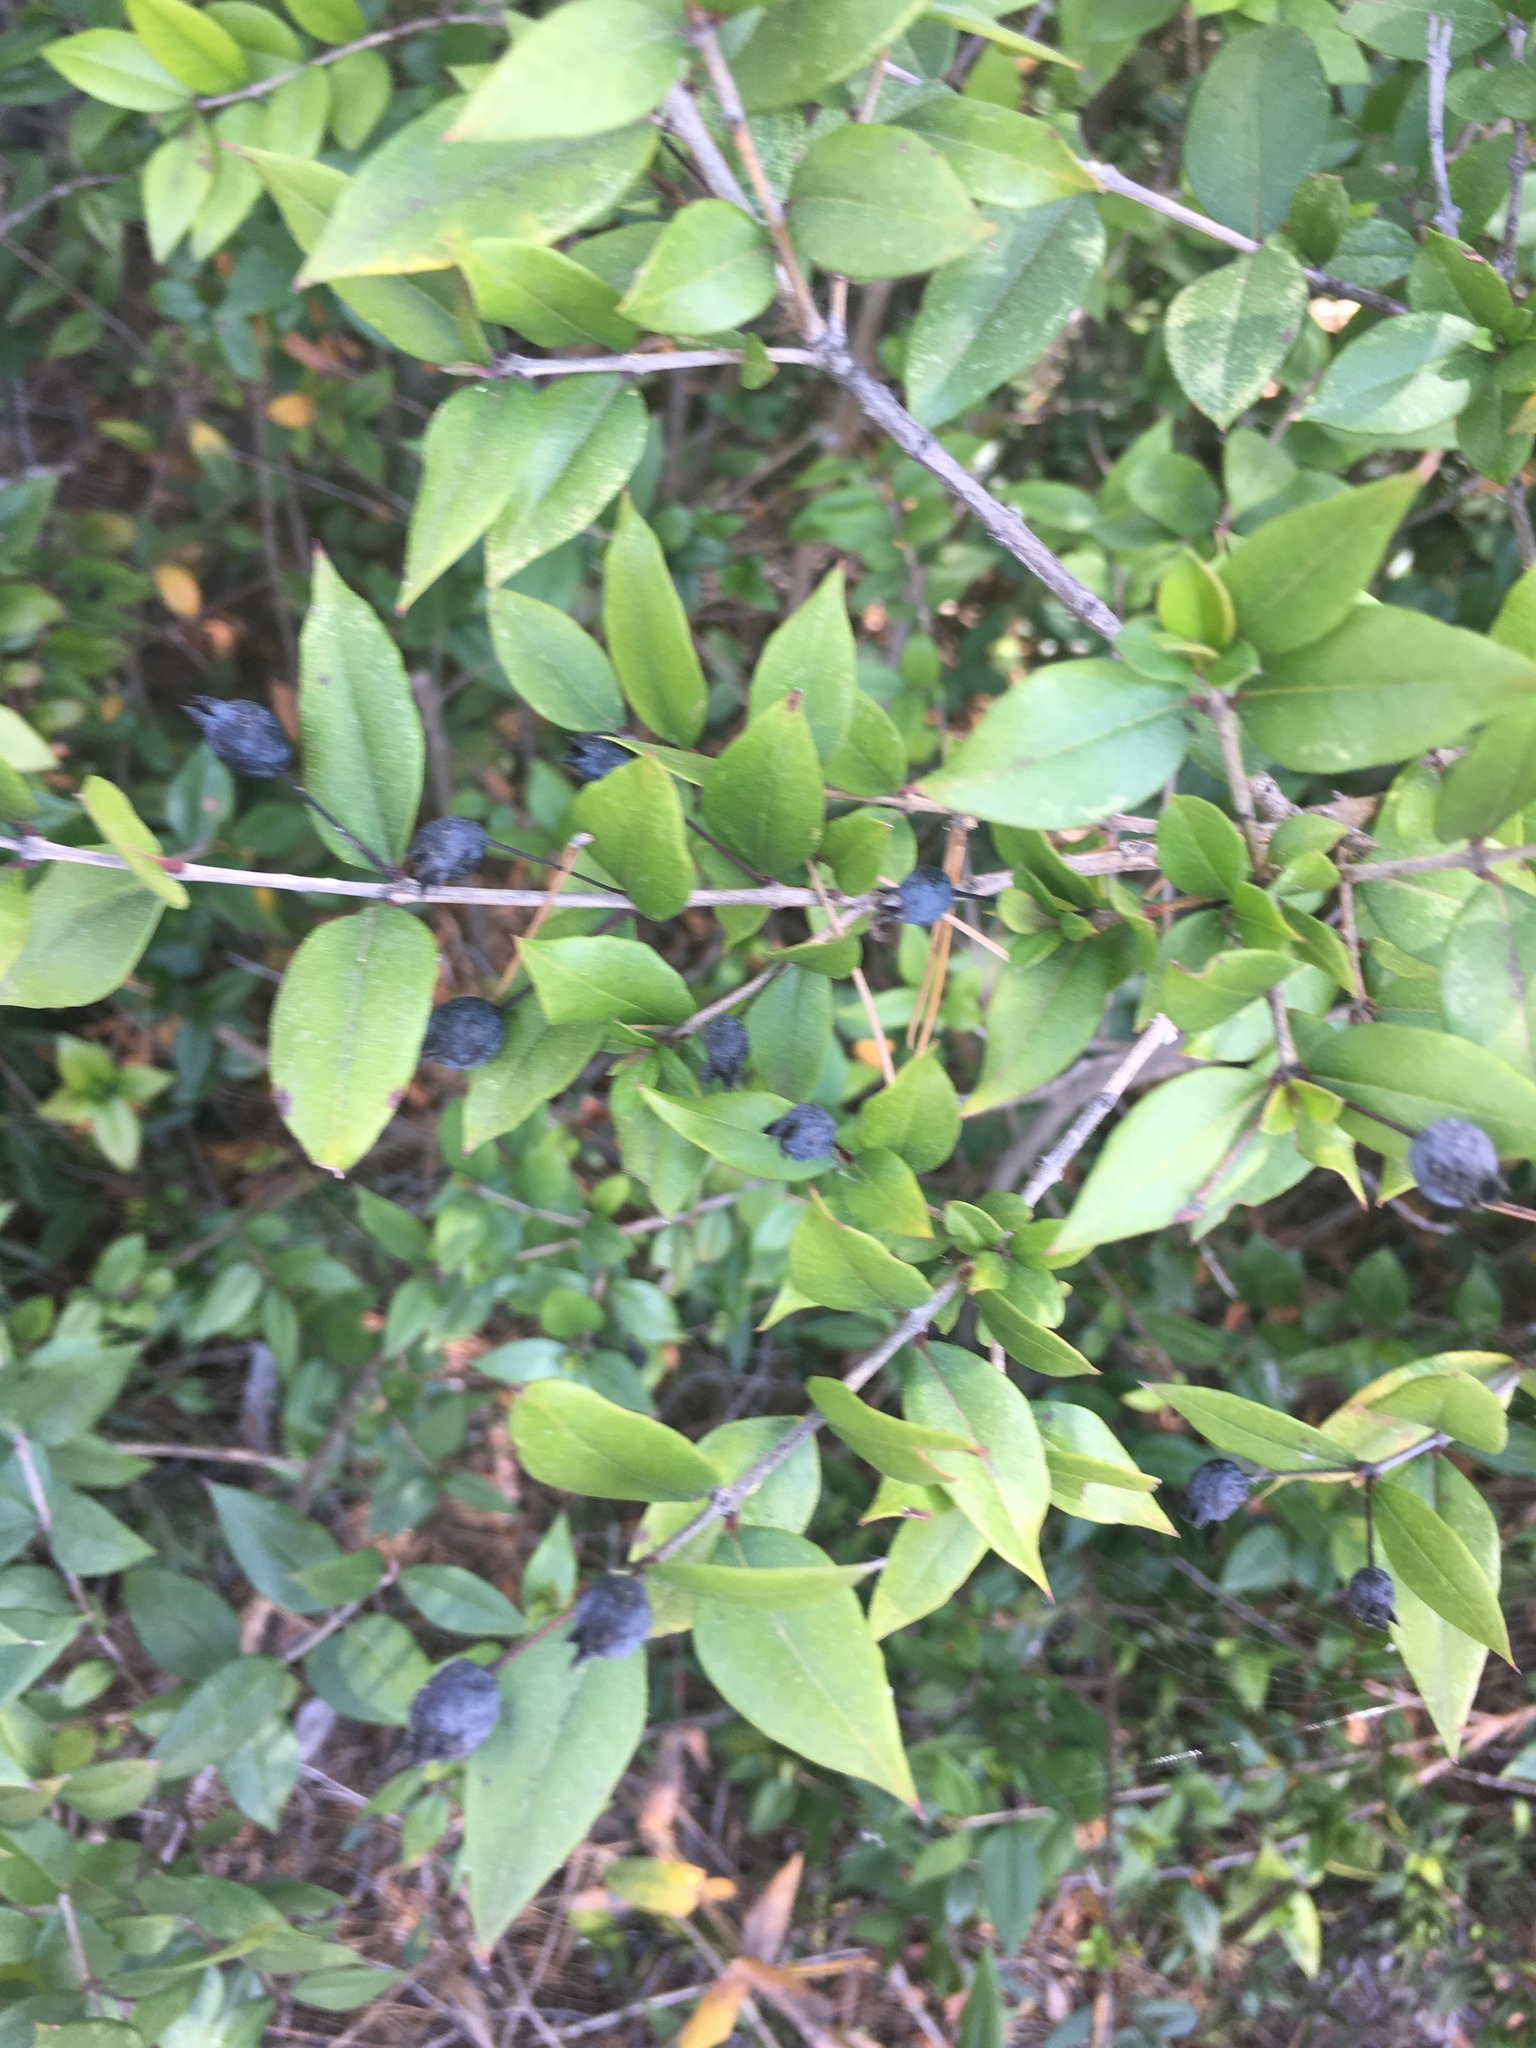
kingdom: Plantae
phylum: Tracheophyta
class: Magnoliopsida
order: Myrtales
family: Myrtaceae
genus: Myrtus
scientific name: Myrtus communis
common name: Myrtle
